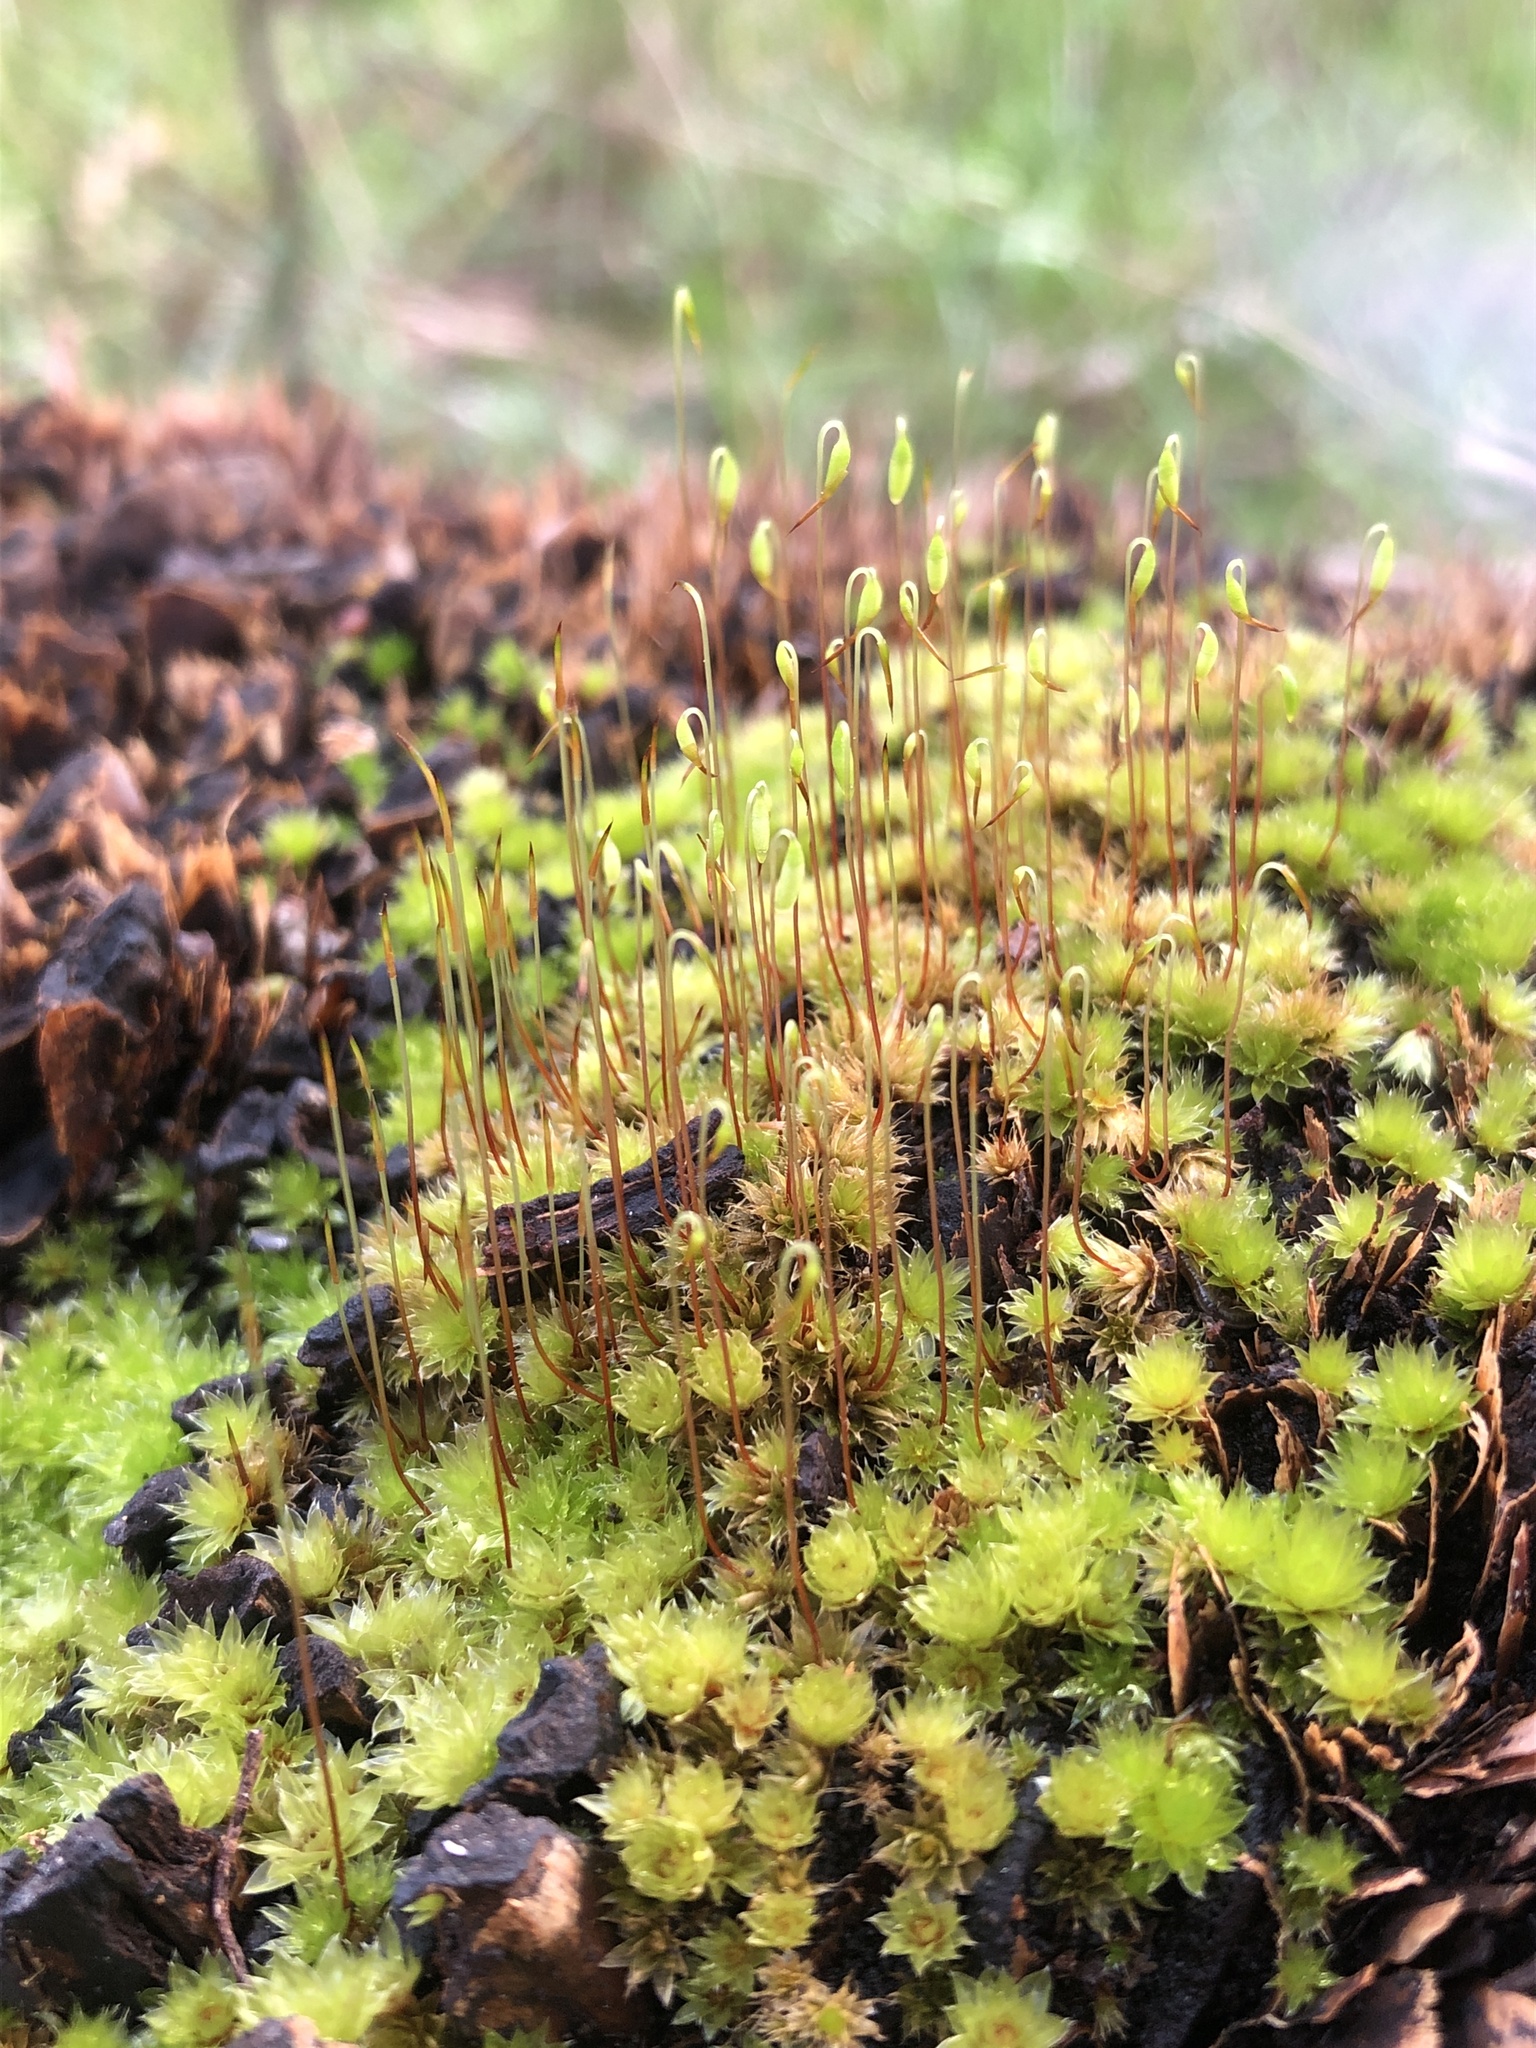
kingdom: Plantae
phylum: Bryophyta
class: Bryopsida
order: Bryales
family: Bryaceae
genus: Rosulabryum
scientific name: Rosulabryum billardierei
